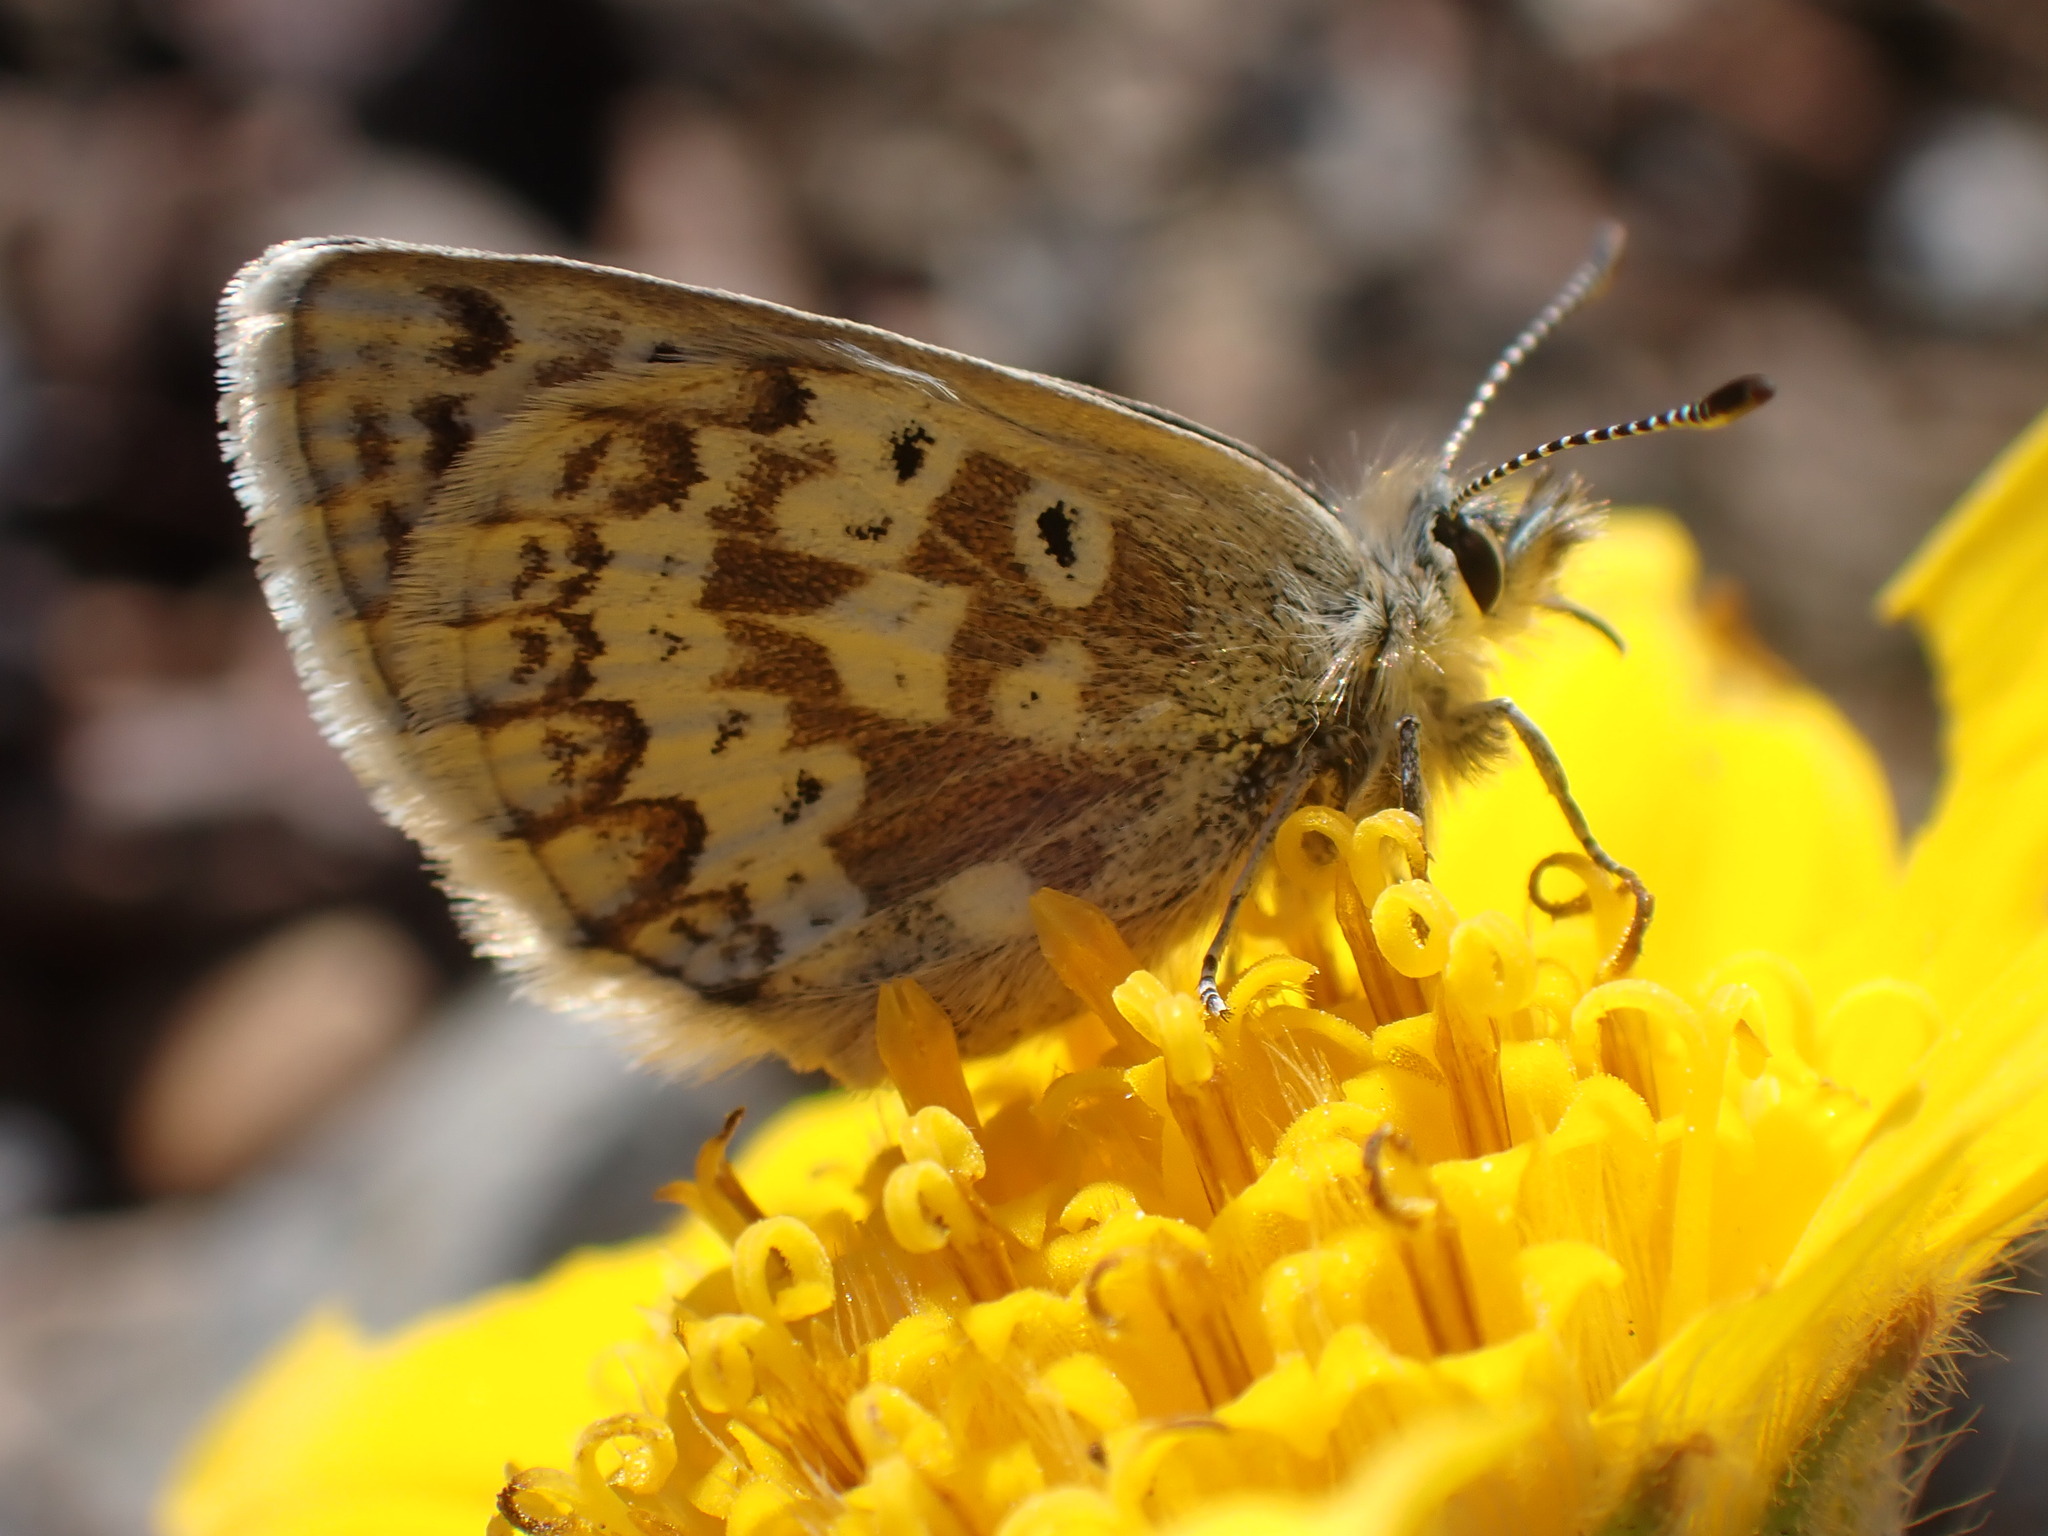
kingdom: Animalia
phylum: Arthropoda
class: Insecta
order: Lepidoptera
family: Lycaenidae
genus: Agriades
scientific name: Agriades glandon
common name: Glandon blue
